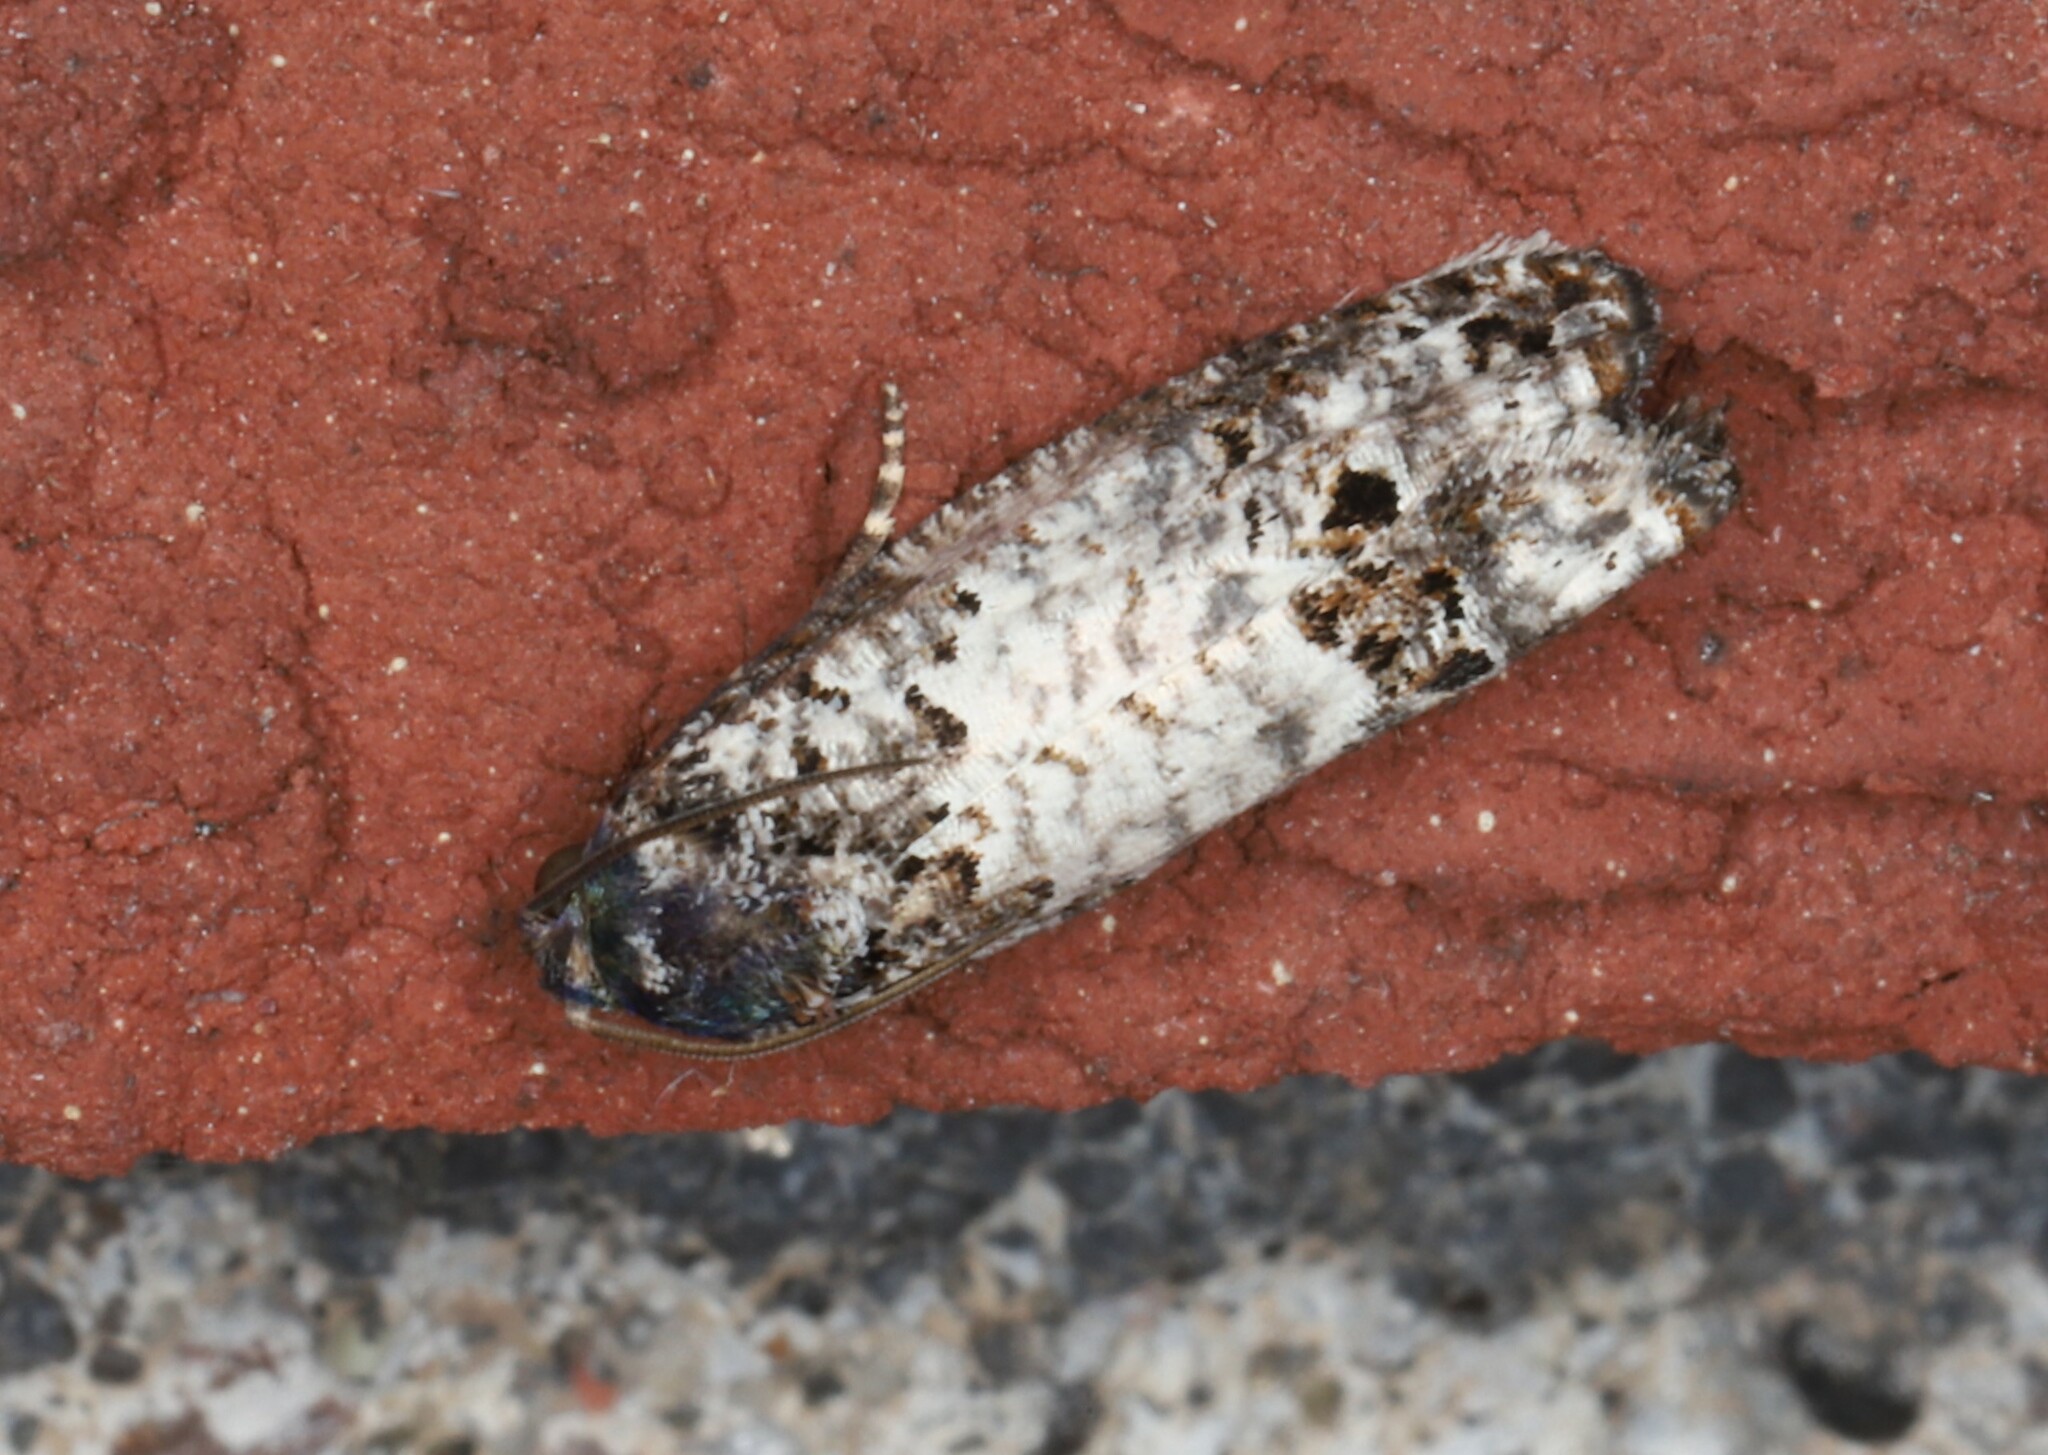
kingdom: Animalia
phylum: Arthropoda
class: Insecta
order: Lepidoptera
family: Tortricidae
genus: Epiblema
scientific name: Epiblema carolinana
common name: Gray-blotched epiblema moth
